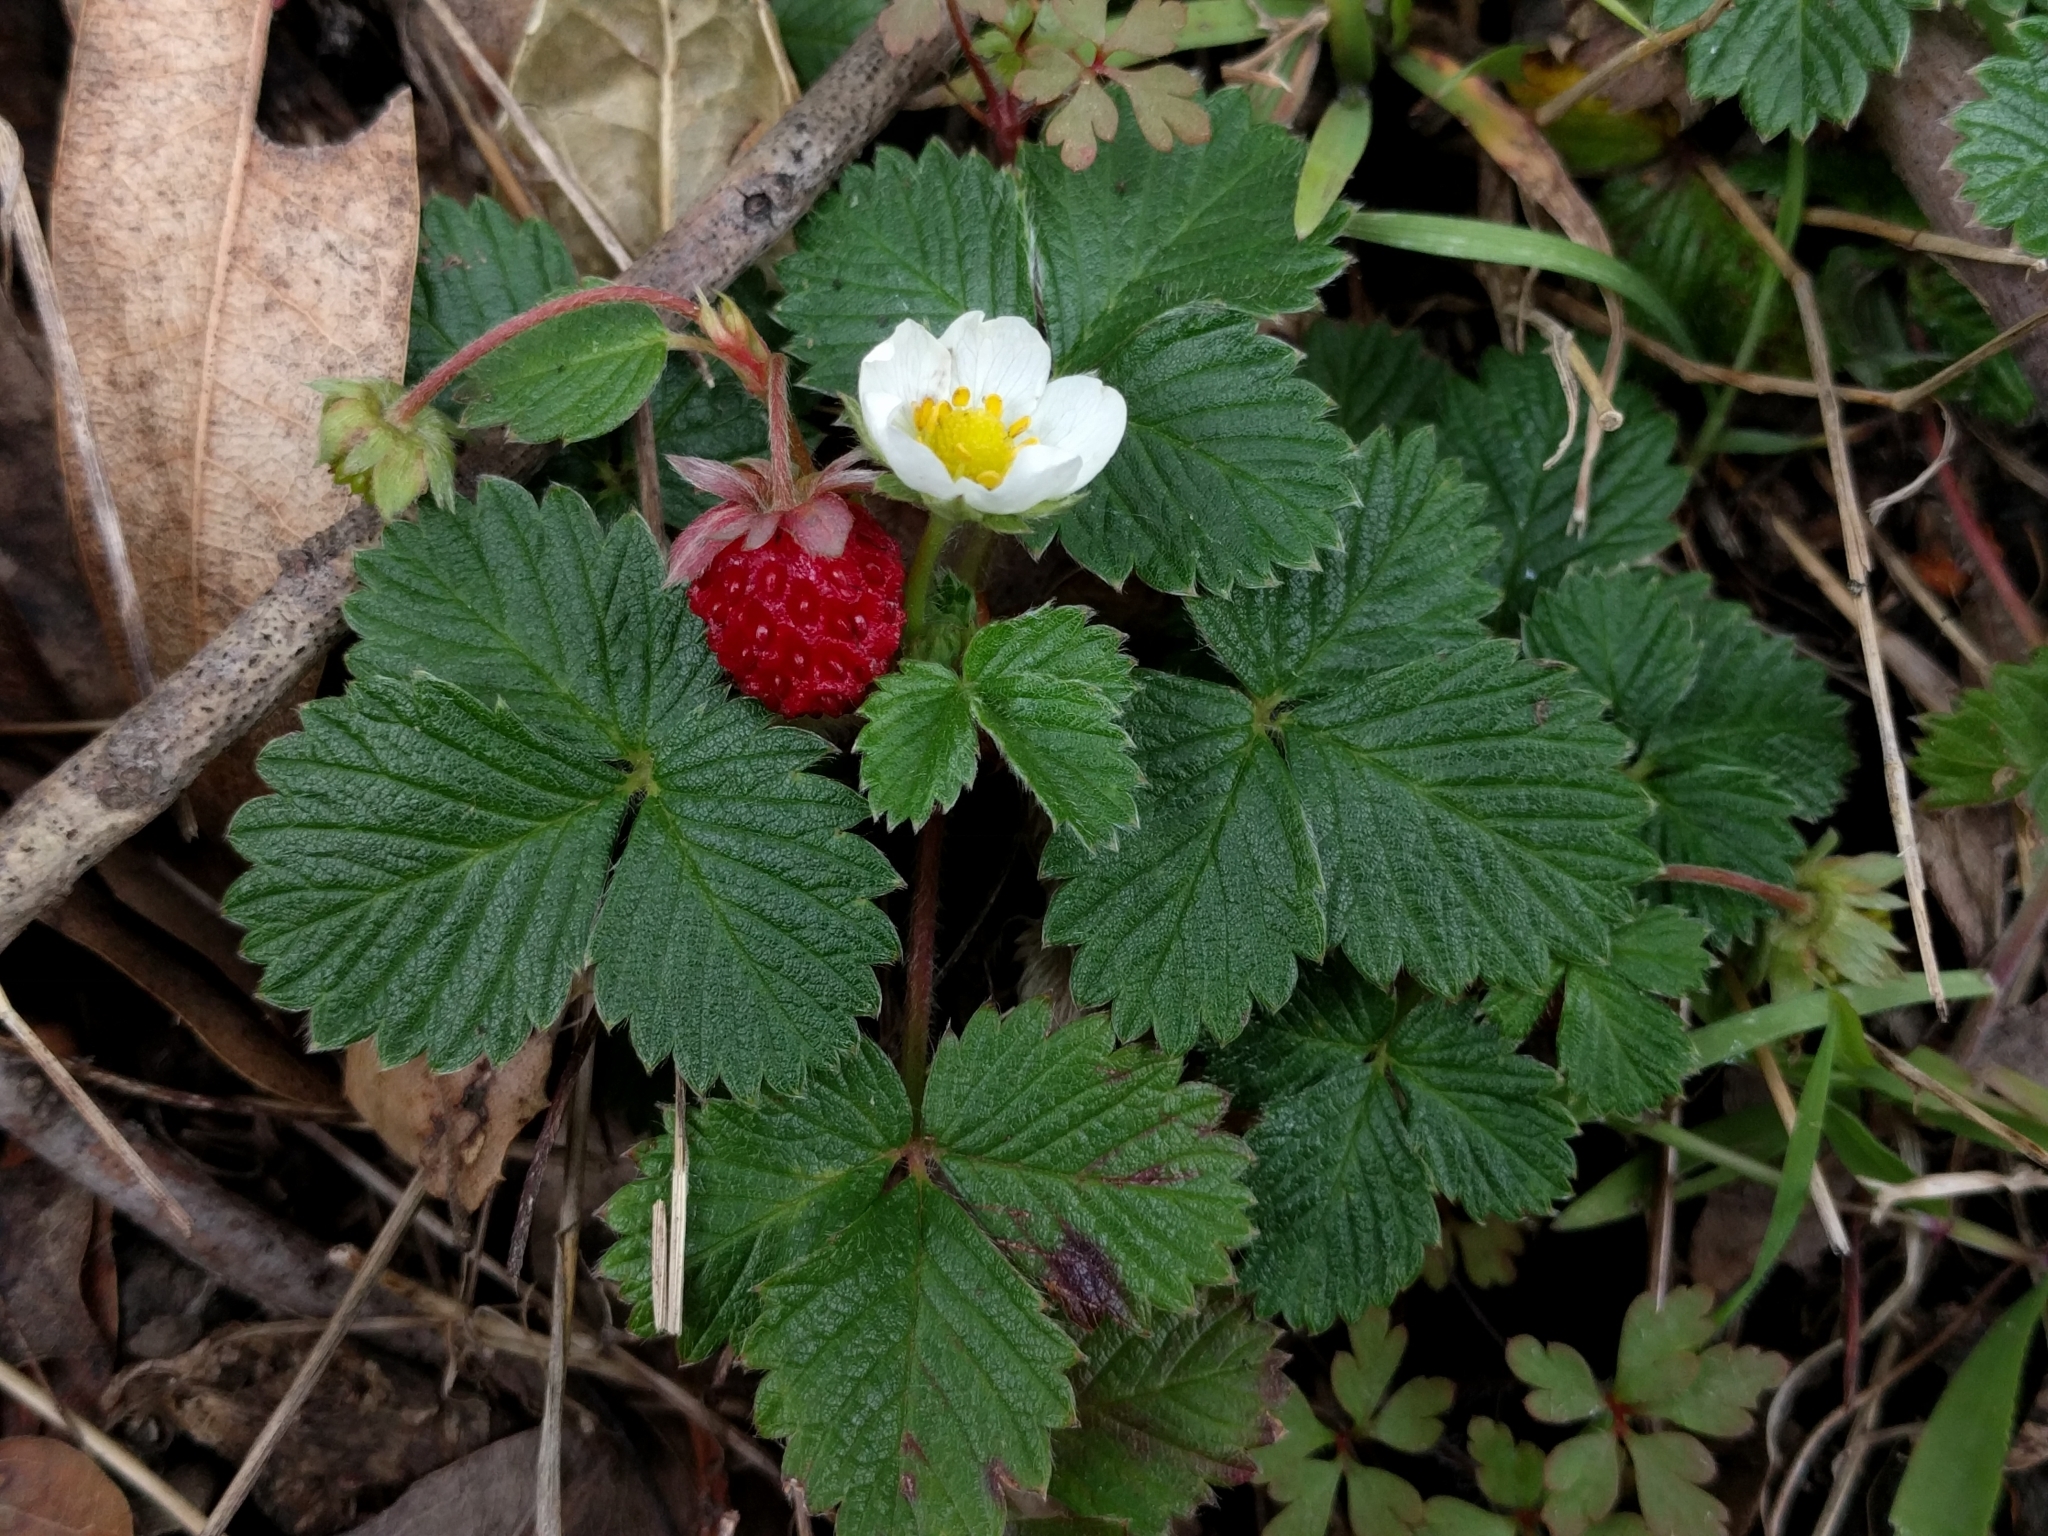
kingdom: Plantae
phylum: Tracheophyta
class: Magnoliopsida
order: Rosales
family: Rosaceae
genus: Fragaria
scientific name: Fragaria vesca
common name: Wild strawberry
